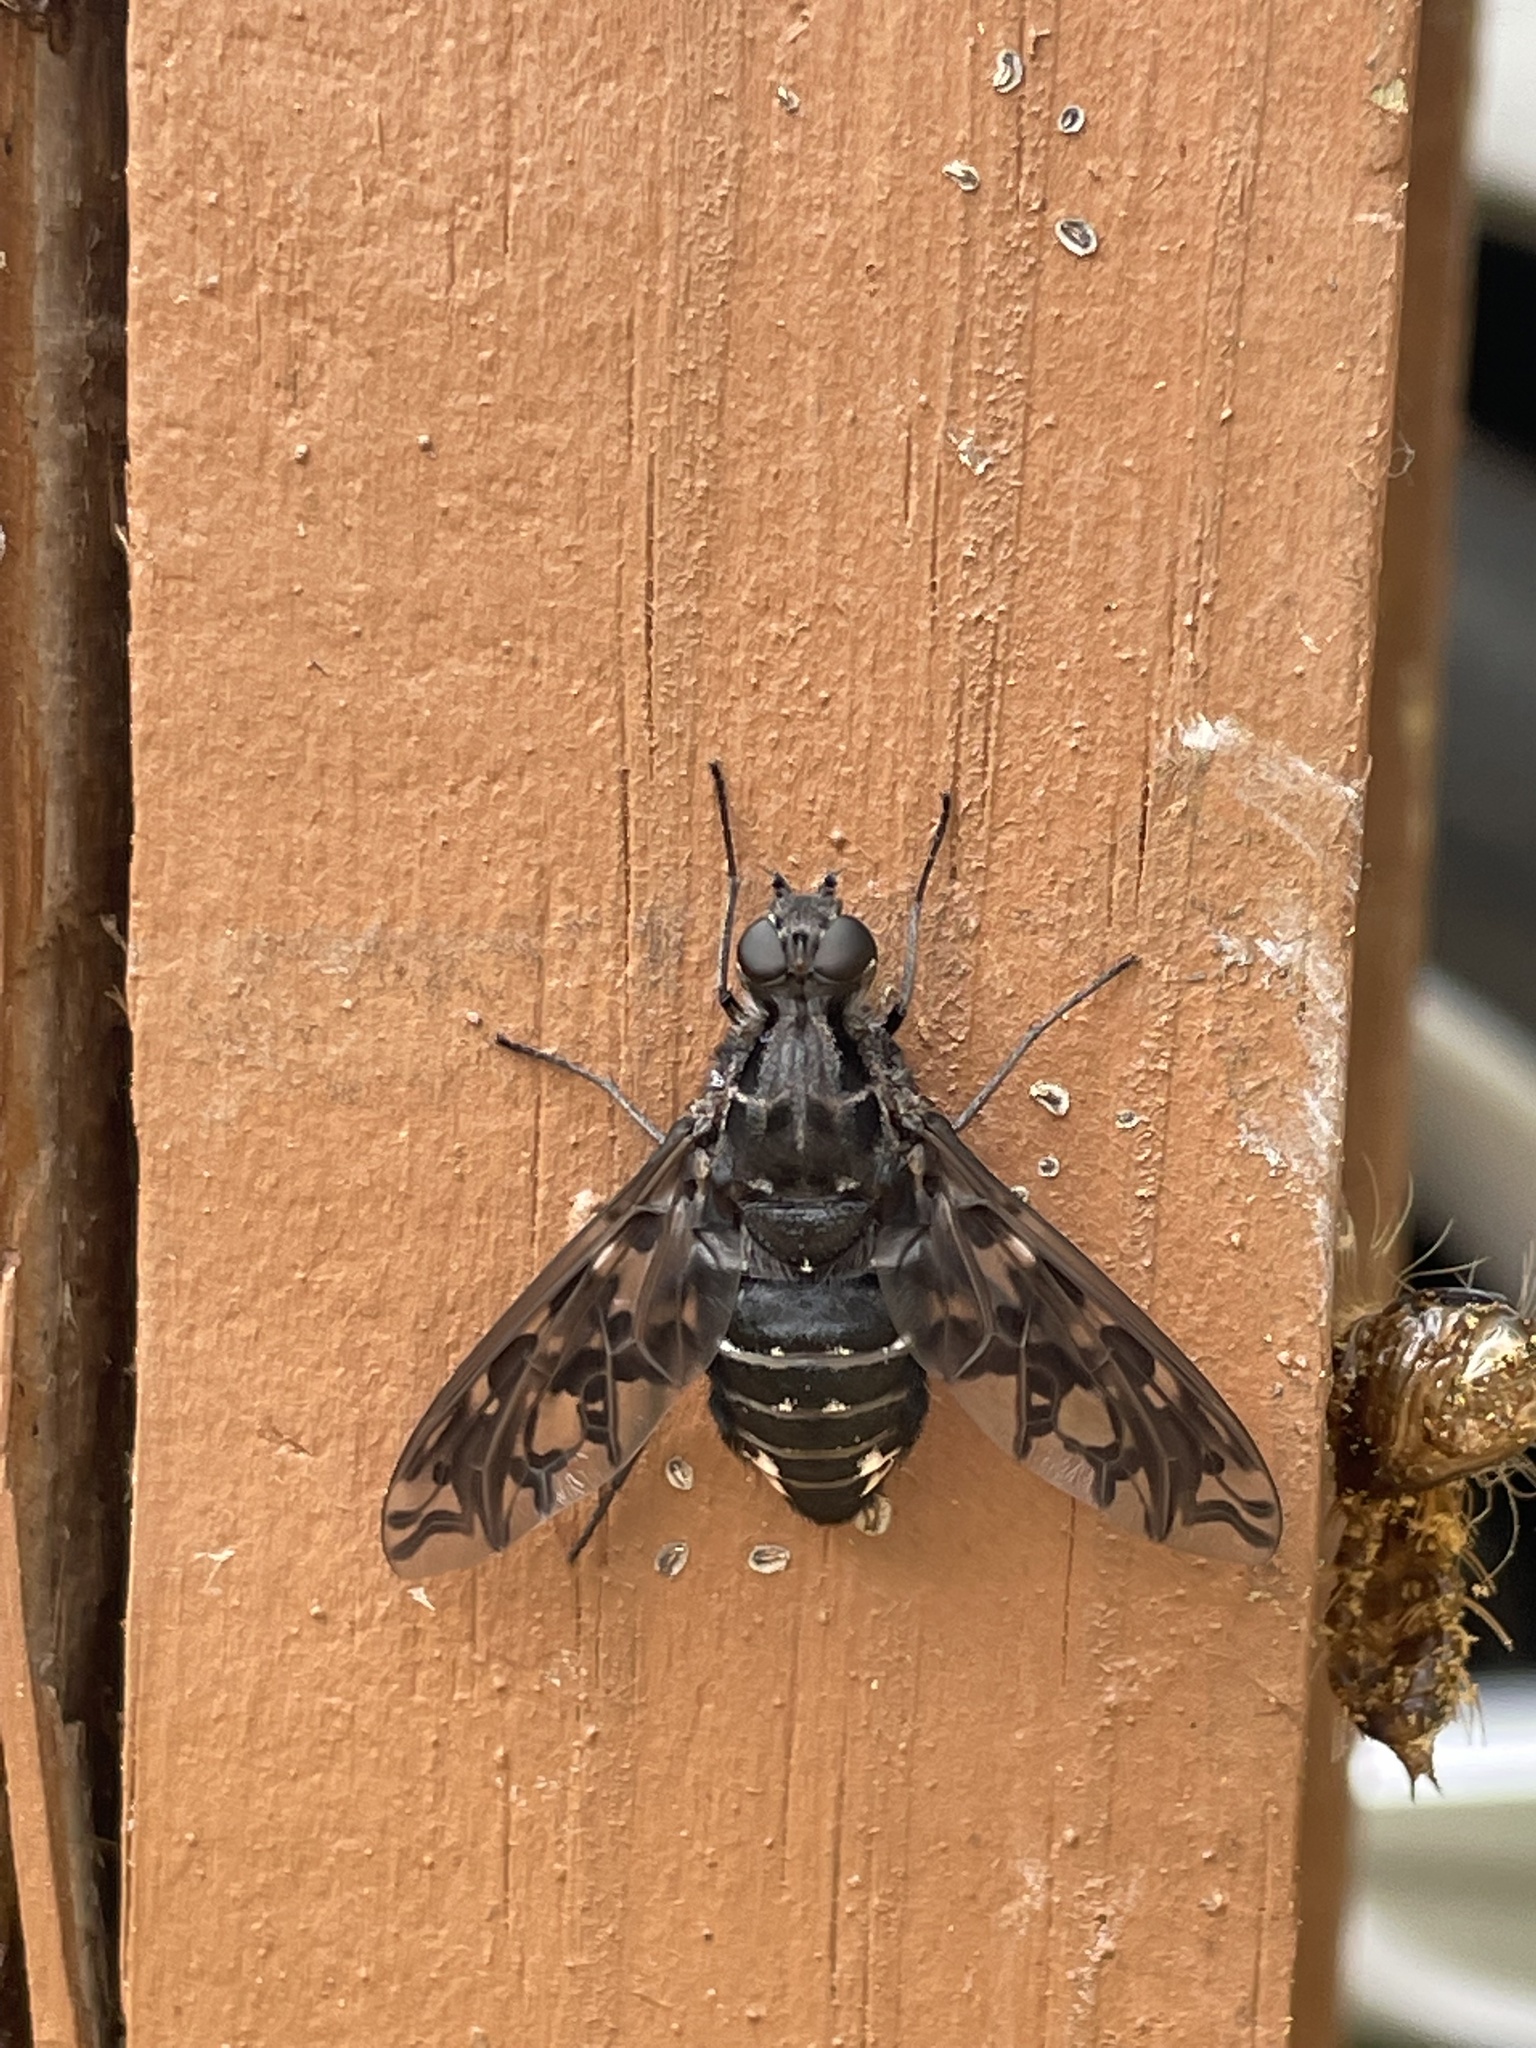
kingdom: Animalia
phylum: Arthropoda
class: Insecta
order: Diptera
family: Bombyliidae
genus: Xenox
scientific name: Xenox tigrinus
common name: Tiger bee fly
